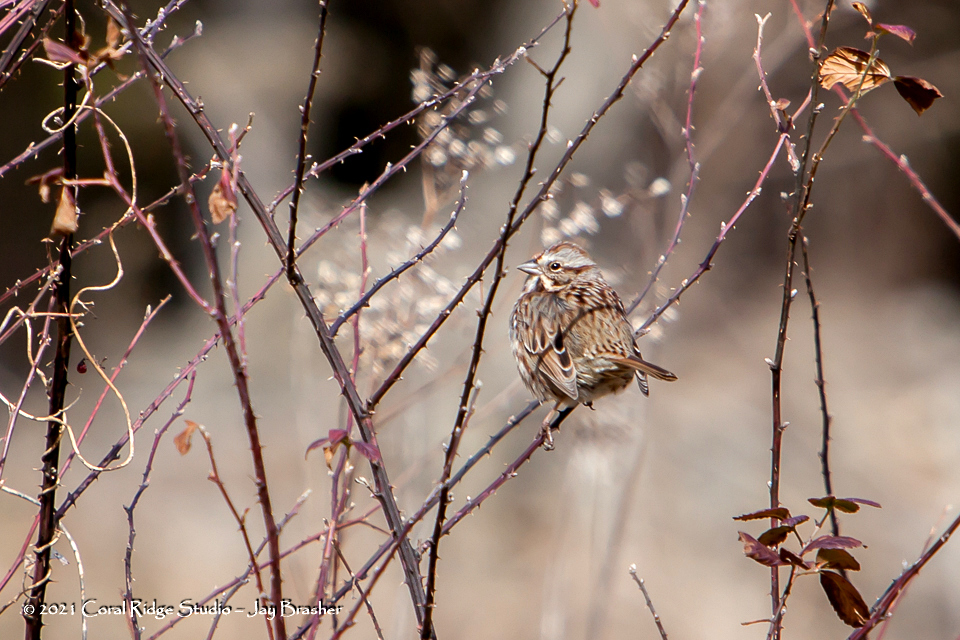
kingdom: Animalia
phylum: Chordata
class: Aves
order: Passeriformes
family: Passerellidae
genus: Melospiza
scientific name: Melospiza melodia
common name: Song sparrow
